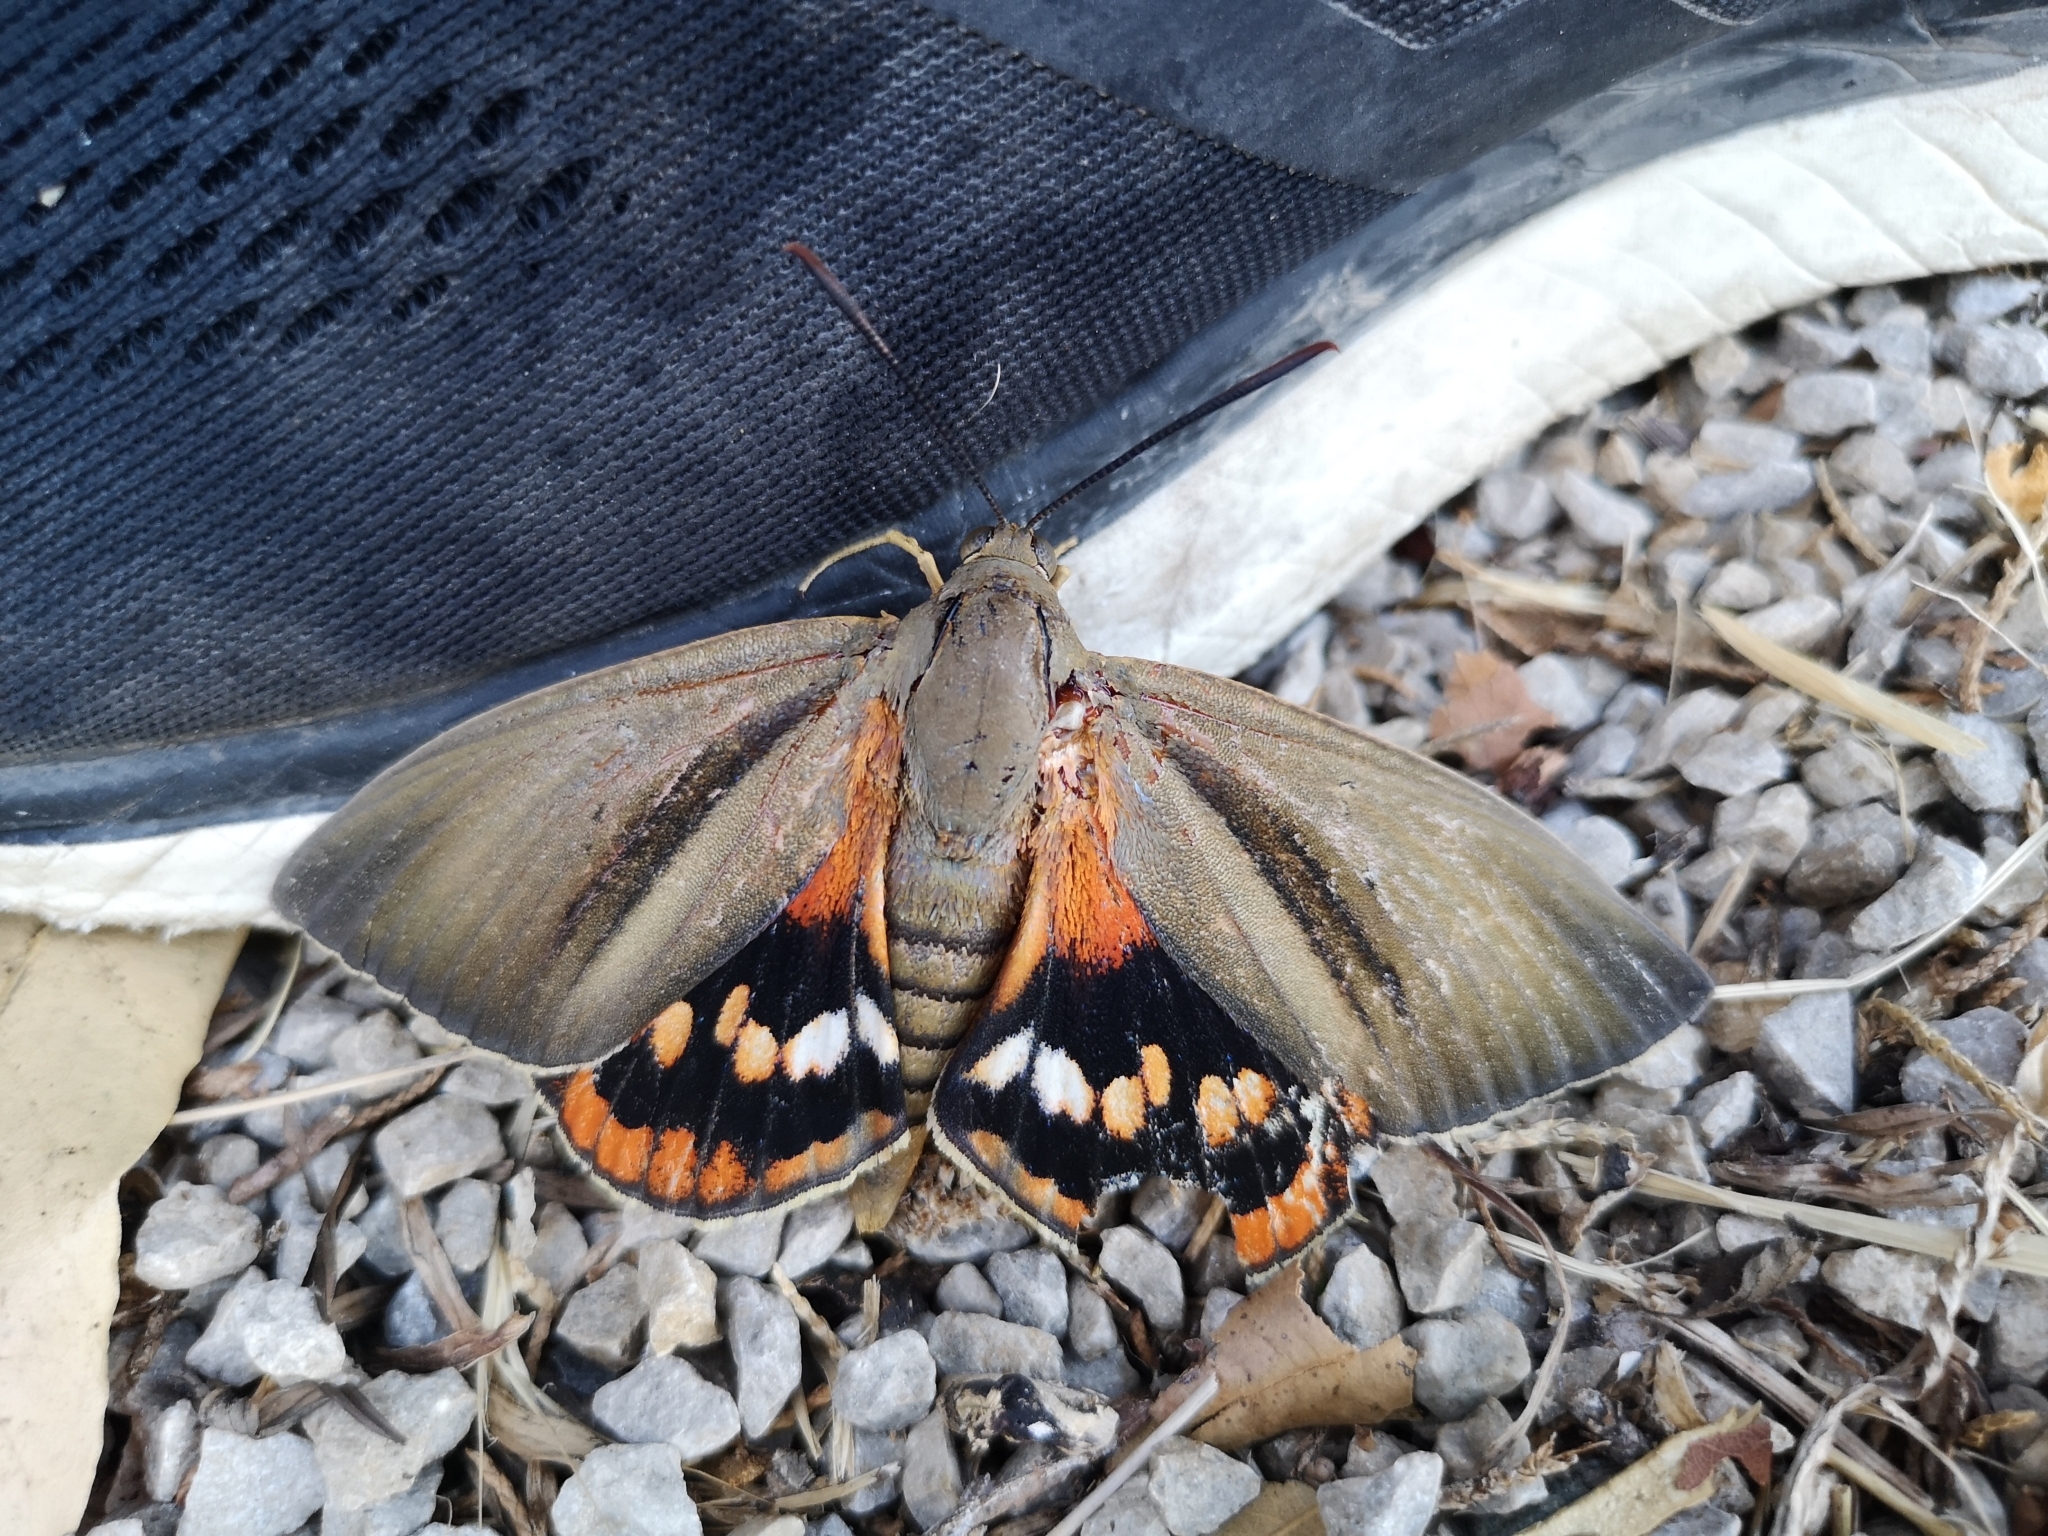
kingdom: Animalia
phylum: Arthropoda
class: Insecta
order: Lepidoptera
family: Castniidae
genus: Paysandisia
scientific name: Paysandisia archon
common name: Palm moth
